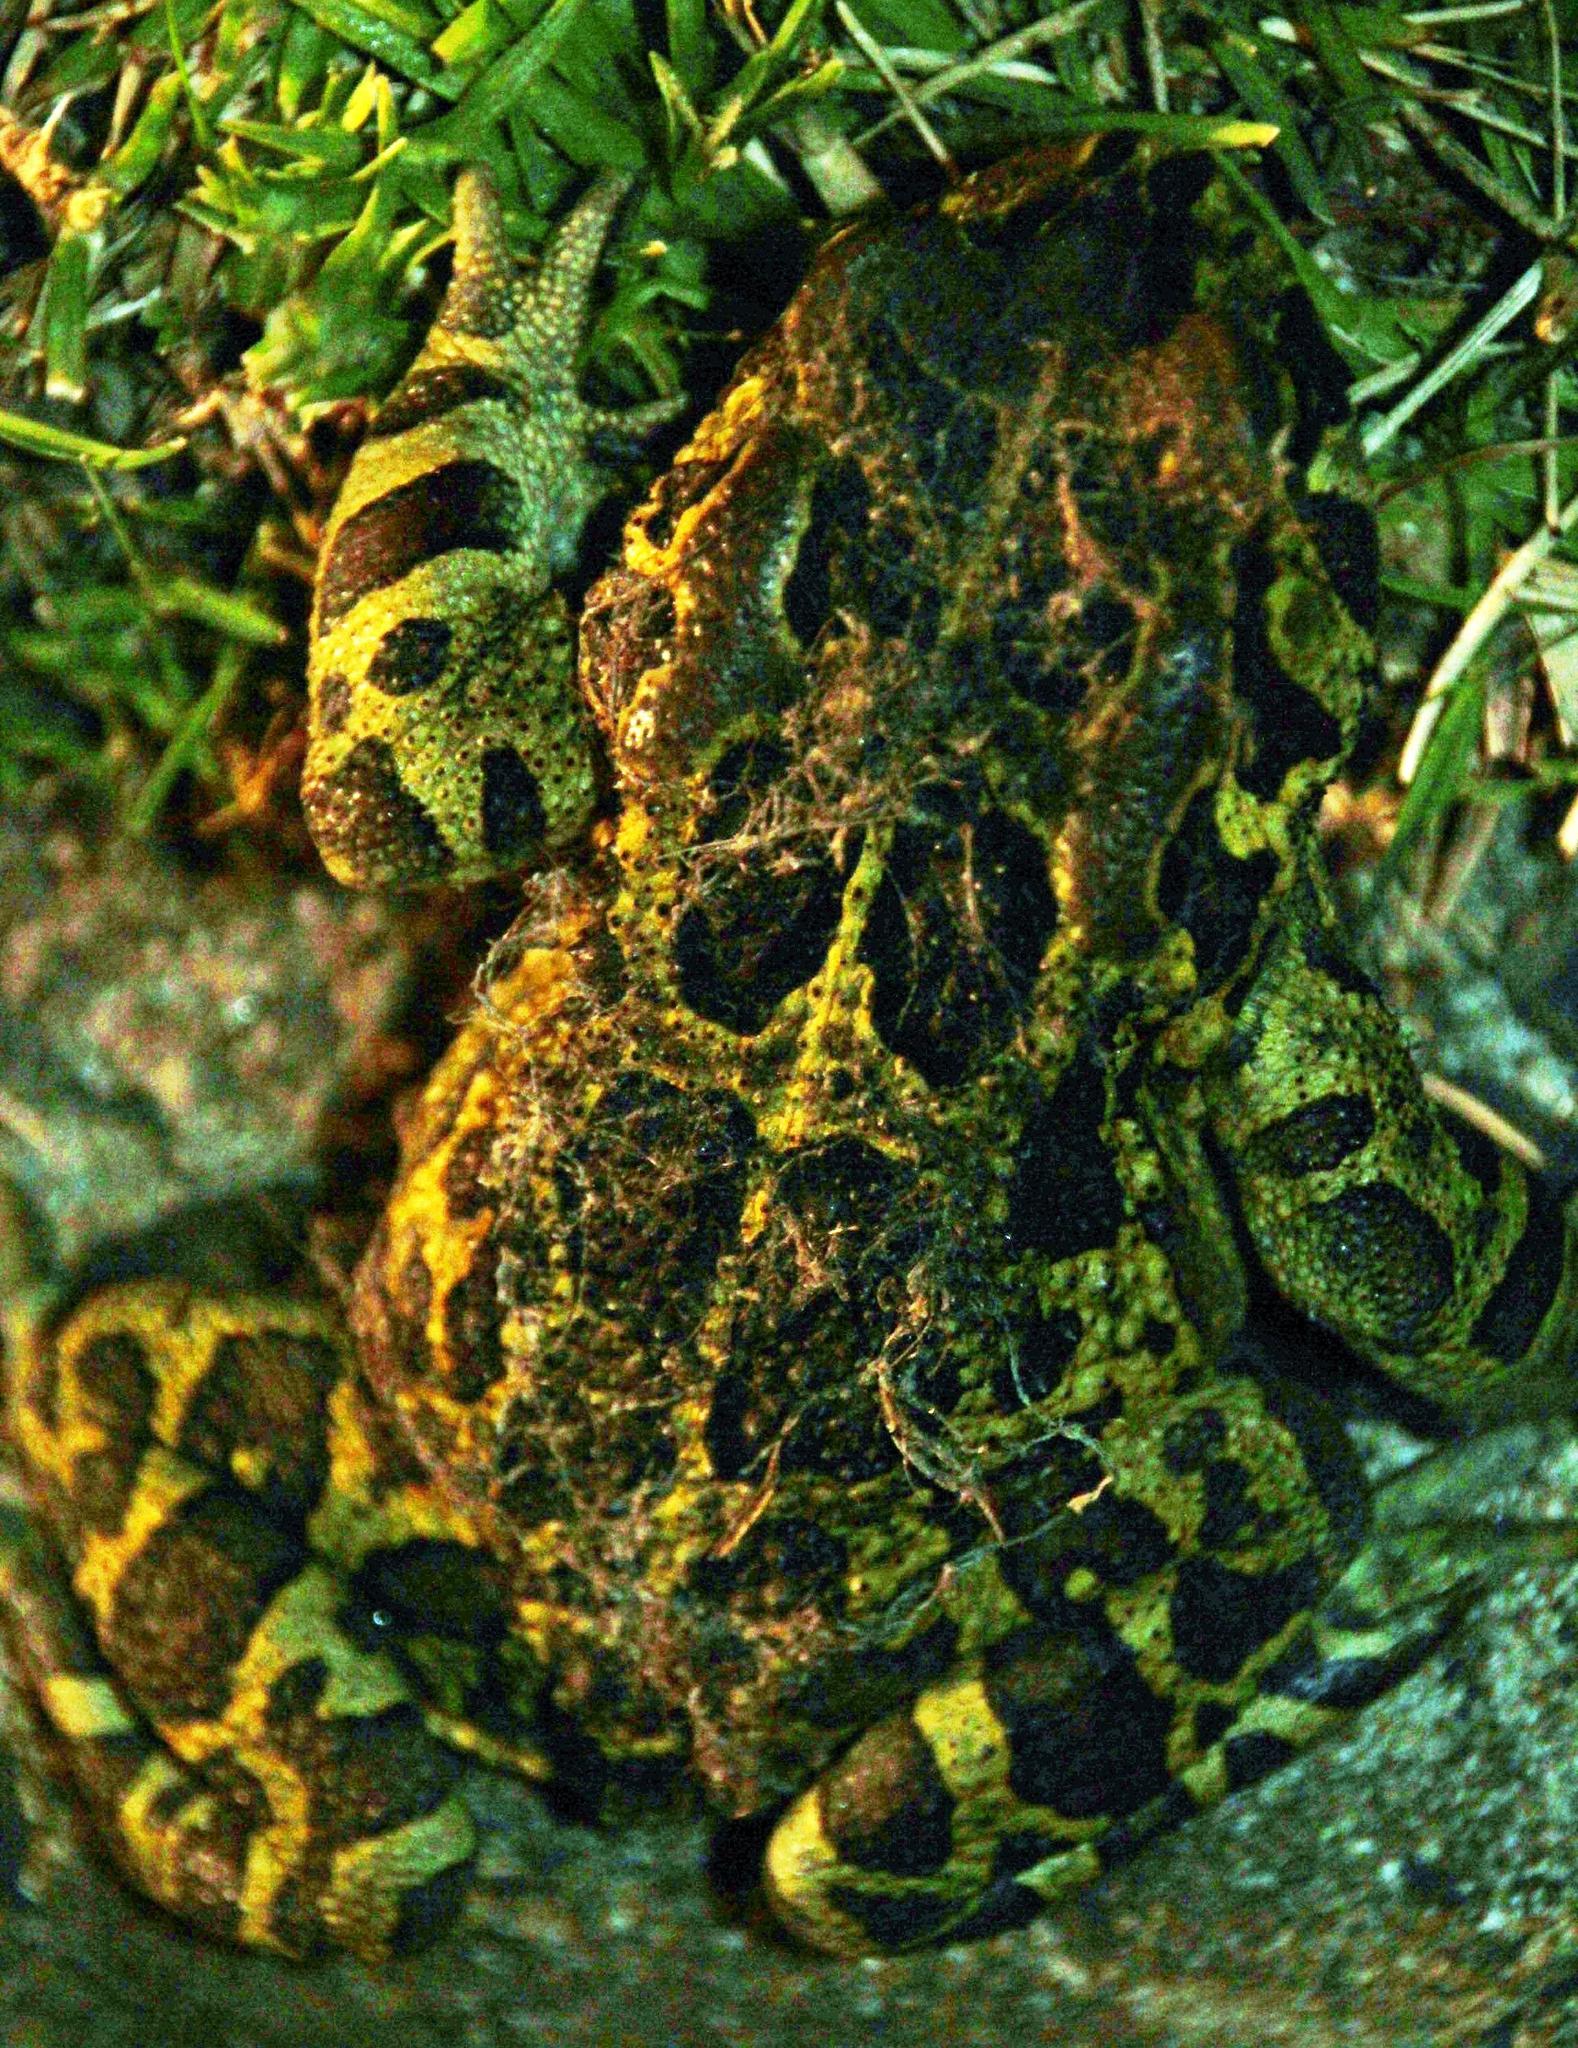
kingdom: Animalia
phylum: Chordata
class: Amphibia
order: Anura
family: Bufonidae
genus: Sclerophrys
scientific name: Sclerophrys pantherina
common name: Panther toad
